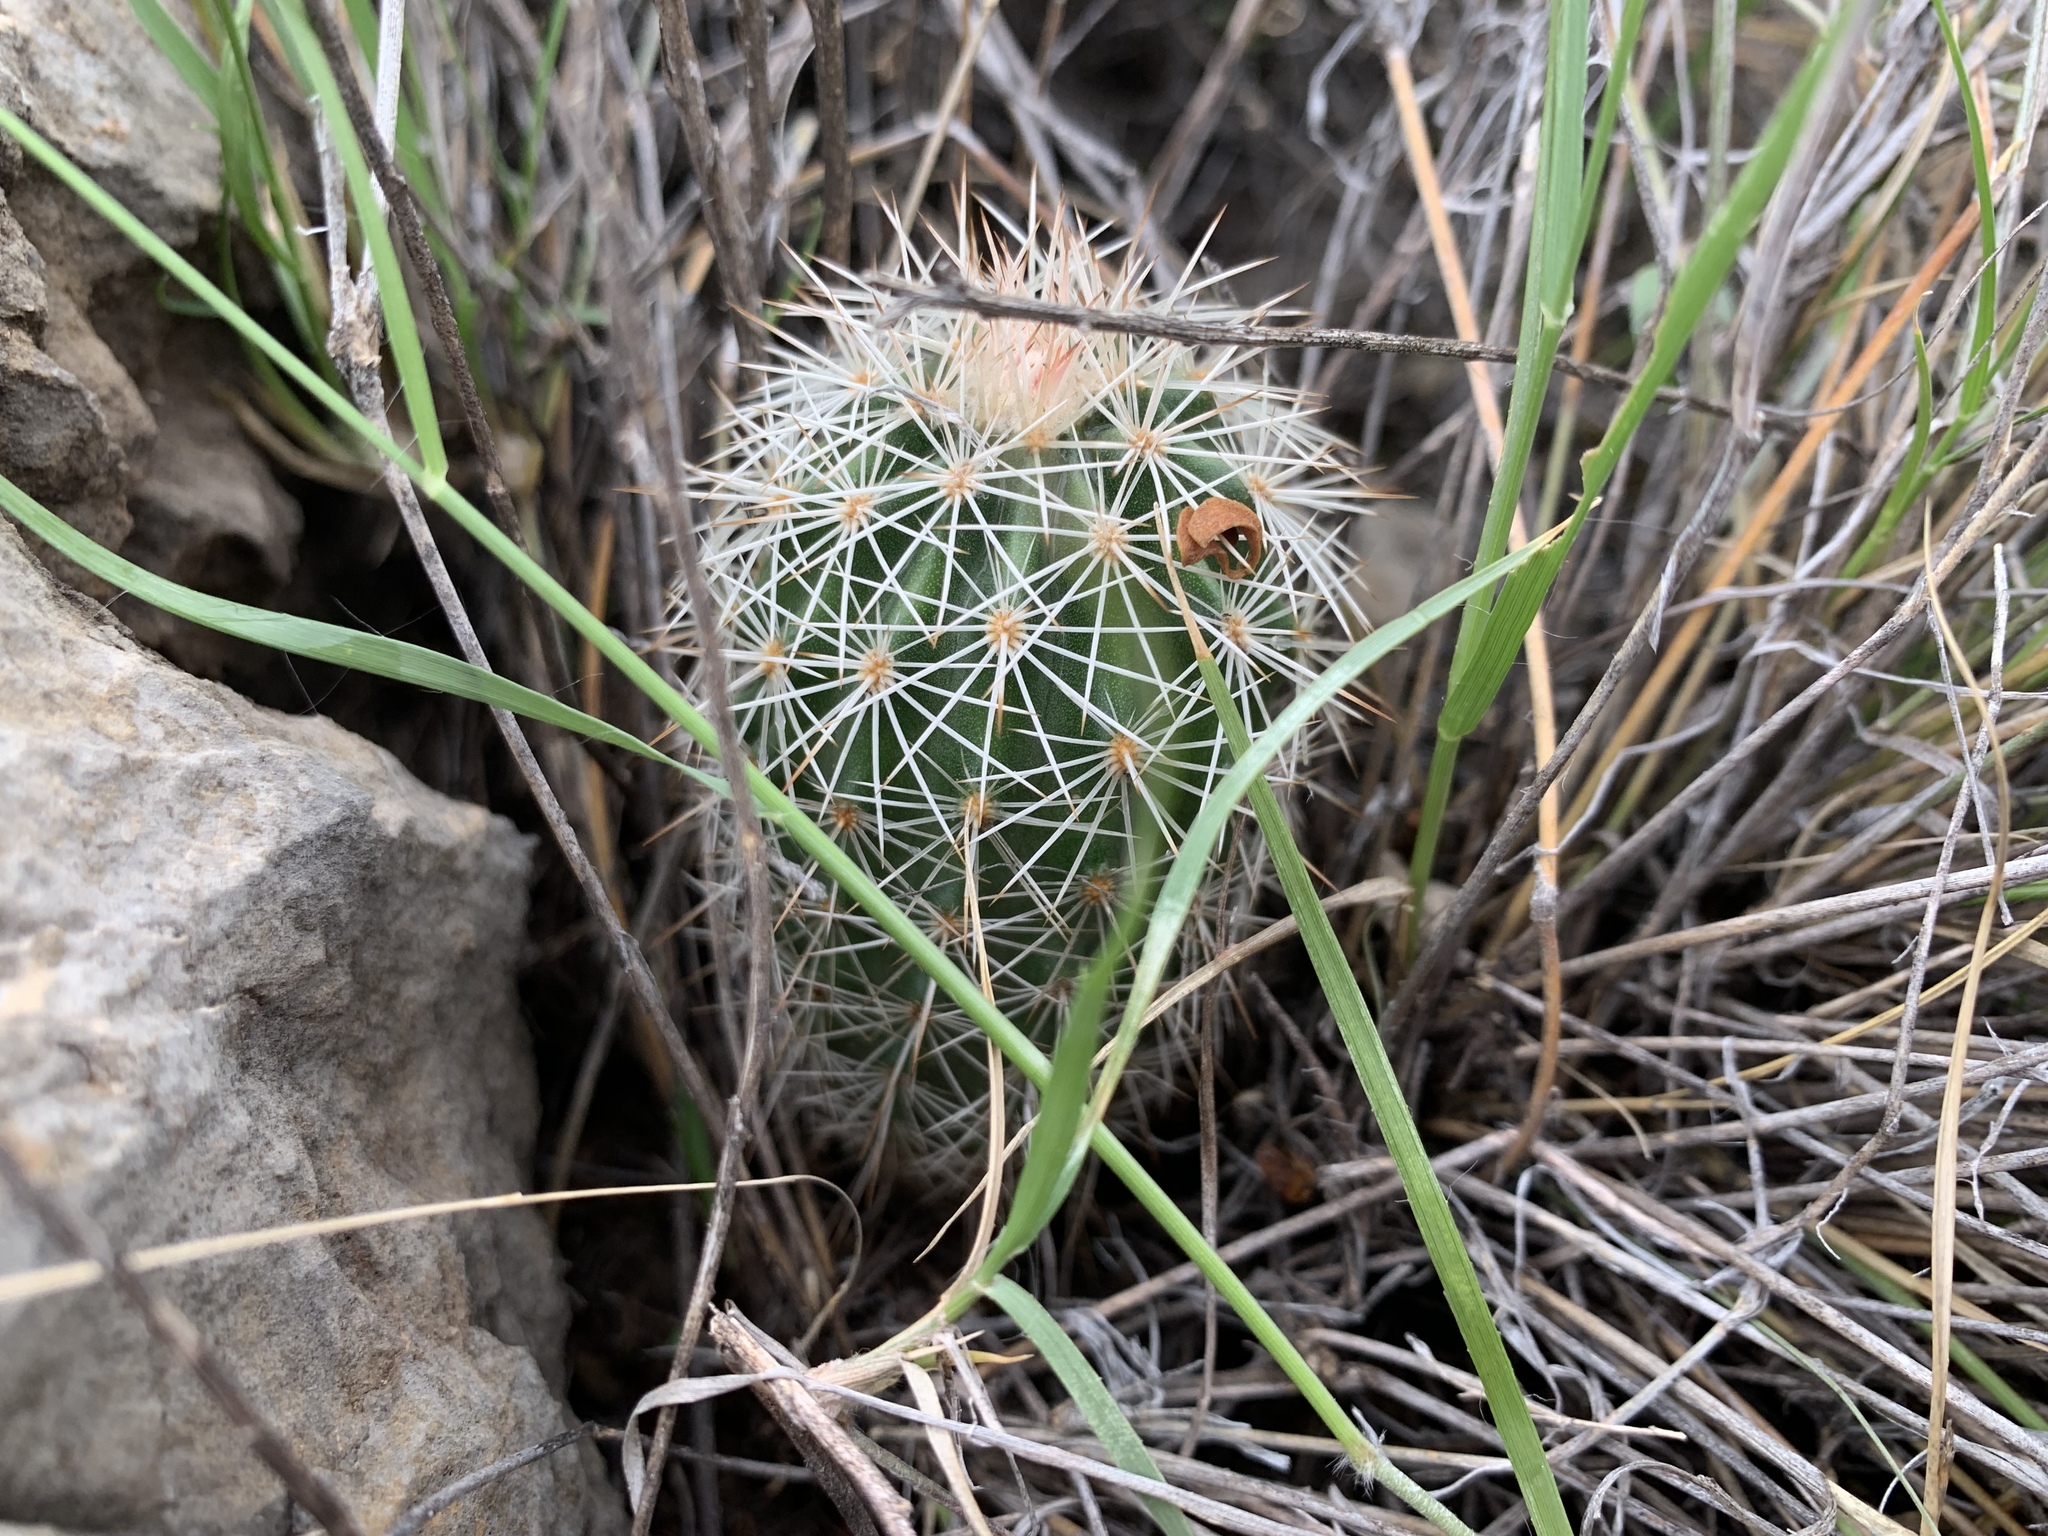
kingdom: Plantae
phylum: Tracheophyta
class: Magnoliopsida
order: Caryophyllales
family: Cactaceae
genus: Echinocereus
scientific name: Echinocereus roetteri
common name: Lloyd's hedgehog cactus
